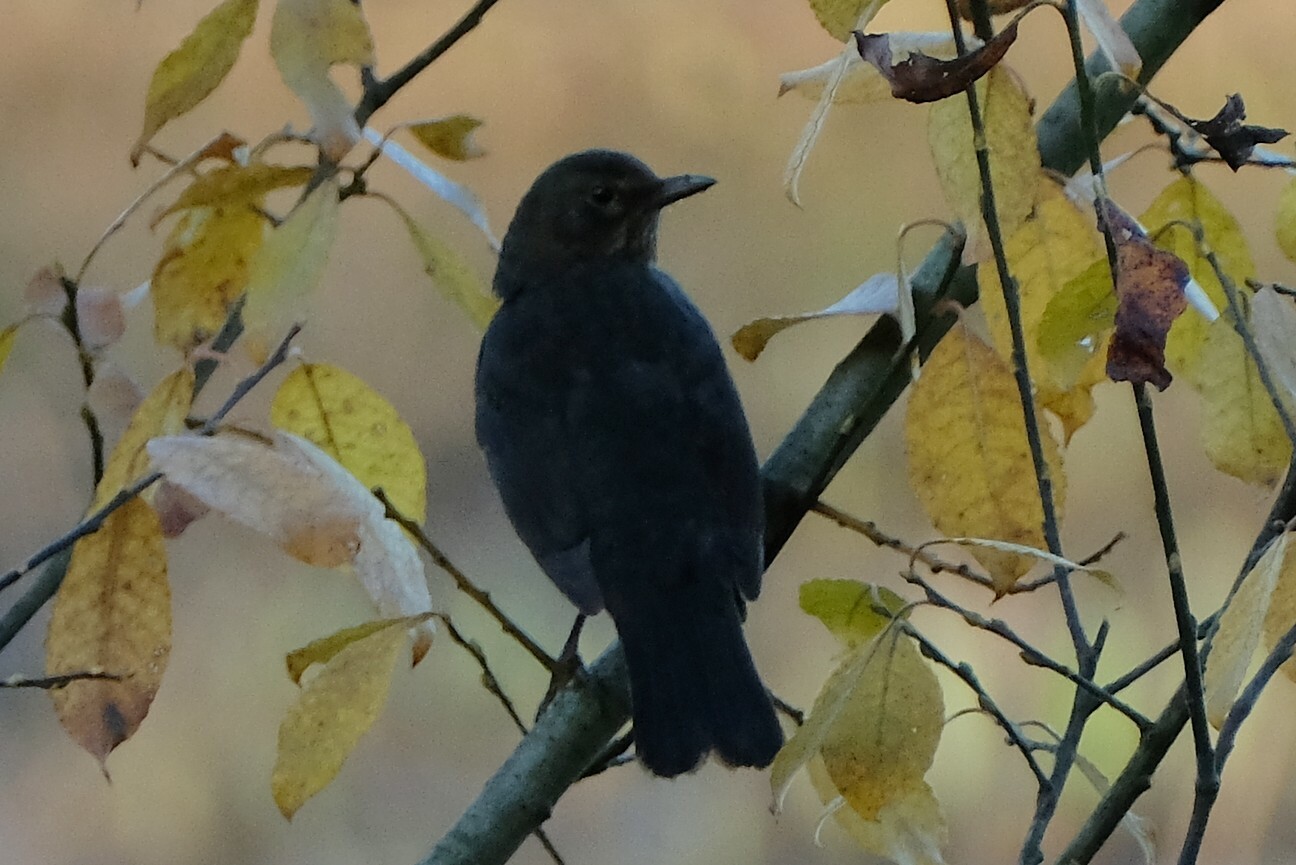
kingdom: Animalia
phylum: Chordata
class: Aves
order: Passeriformes
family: Turdidae
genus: Turdus
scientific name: Turdus merula
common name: Common blackbird
